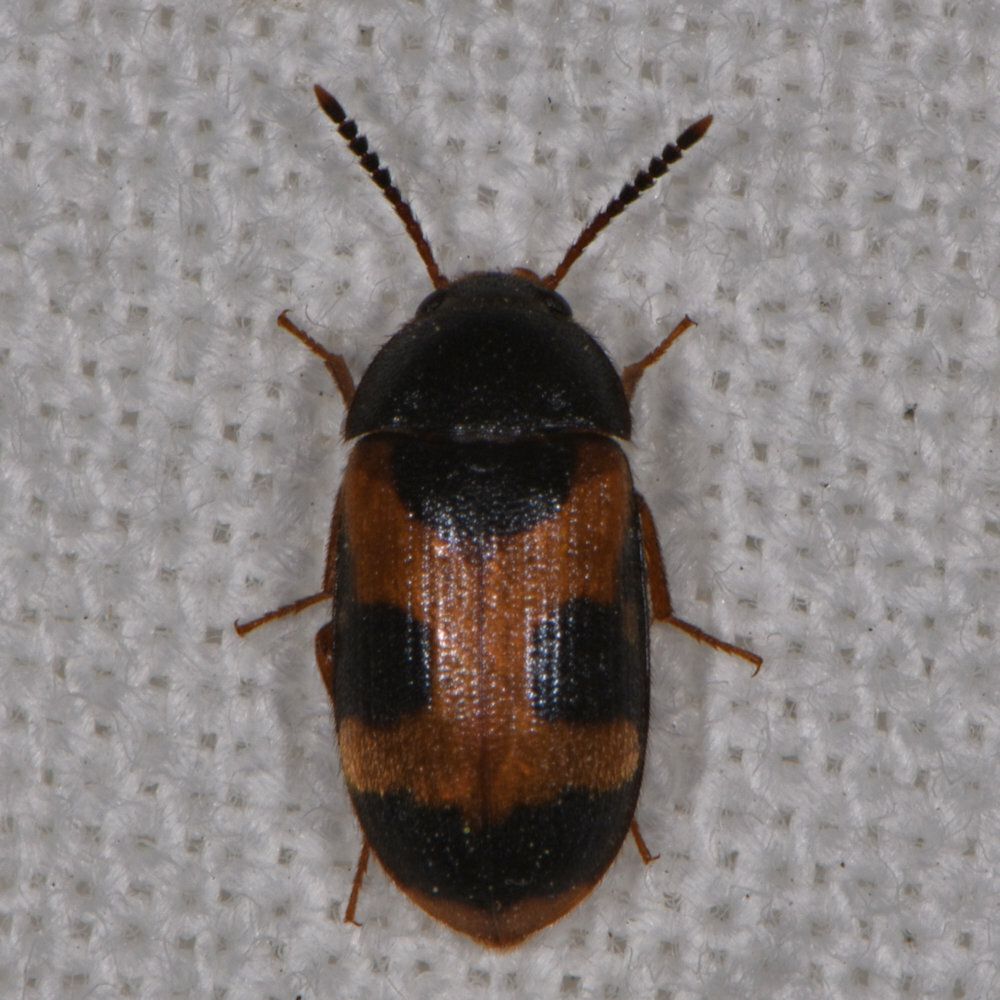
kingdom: Animalia
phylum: Arthropoda
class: Insecta
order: Coleoptera
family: Mycetophagidae
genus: Mycetophagus
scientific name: Mycetophagus punctatus
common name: Hairy fungus beetle
